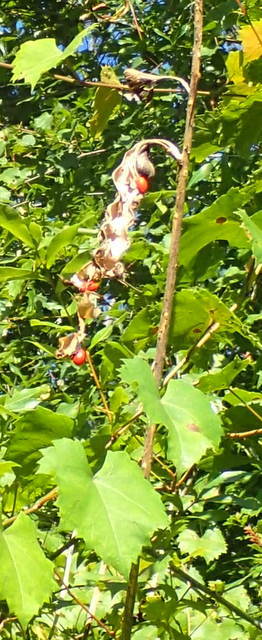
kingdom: Plantae
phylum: Tracheophyta
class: Magnoliopsida
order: Fabales
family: Fabaceae
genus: Erythrina
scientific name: Erythrina herbacea
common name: Coral-bean
